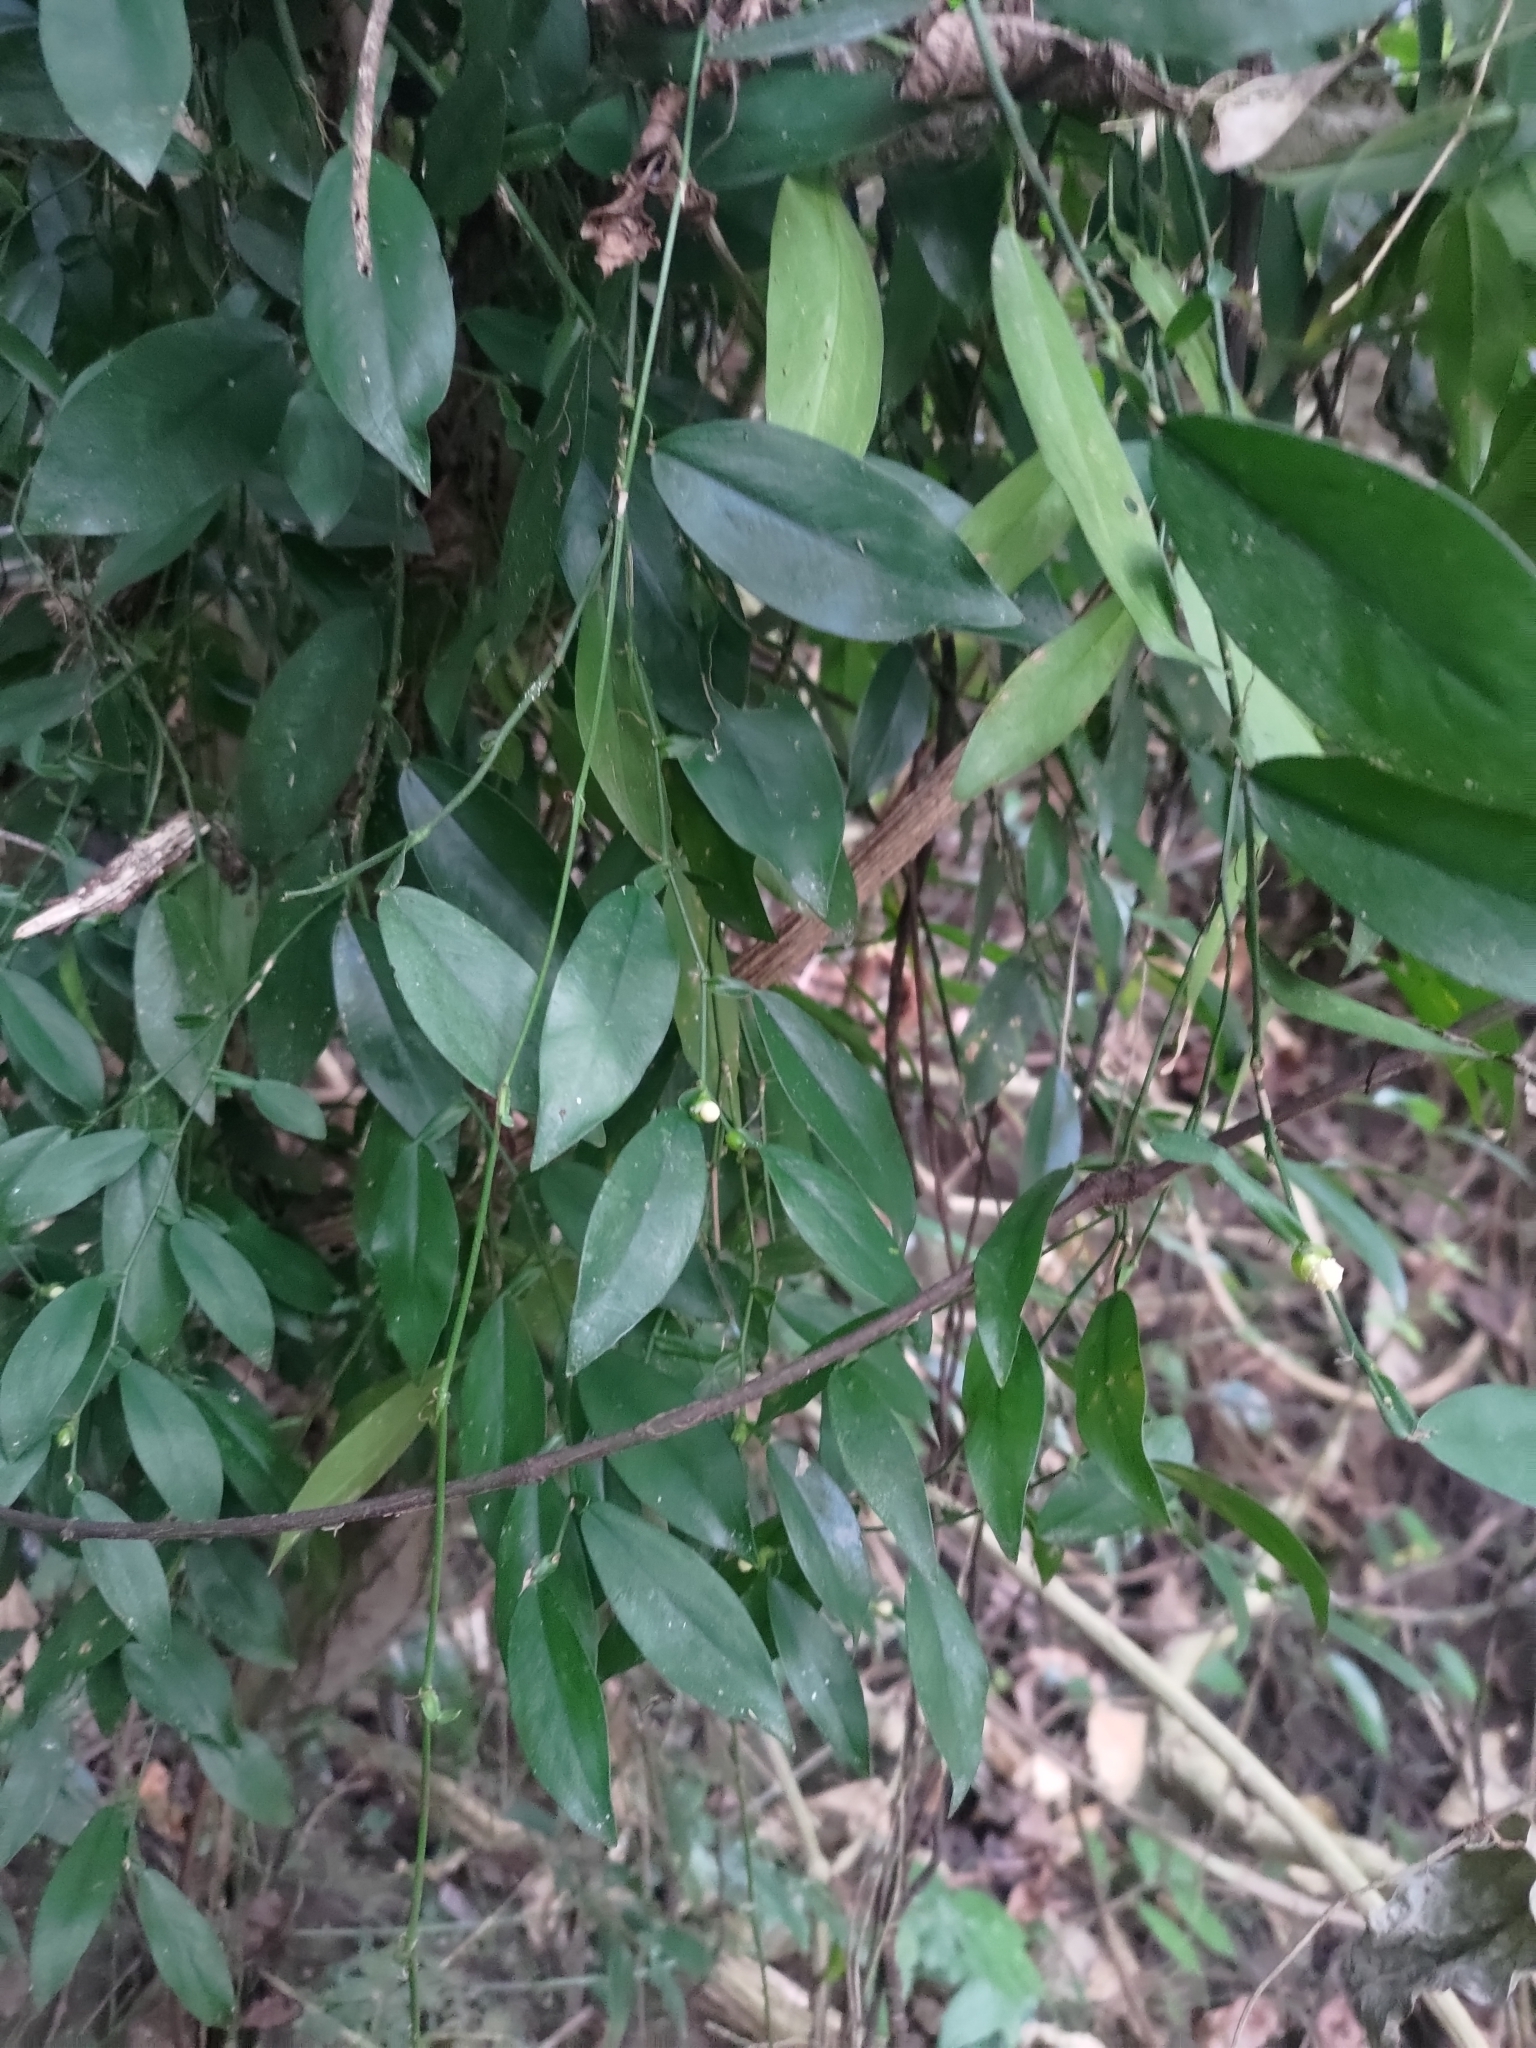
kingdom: Plantae
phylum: Tracheophyta
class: Liliopsida
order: Alismatales
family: Araceae
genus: Pothos
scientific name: Pothos chinensis
